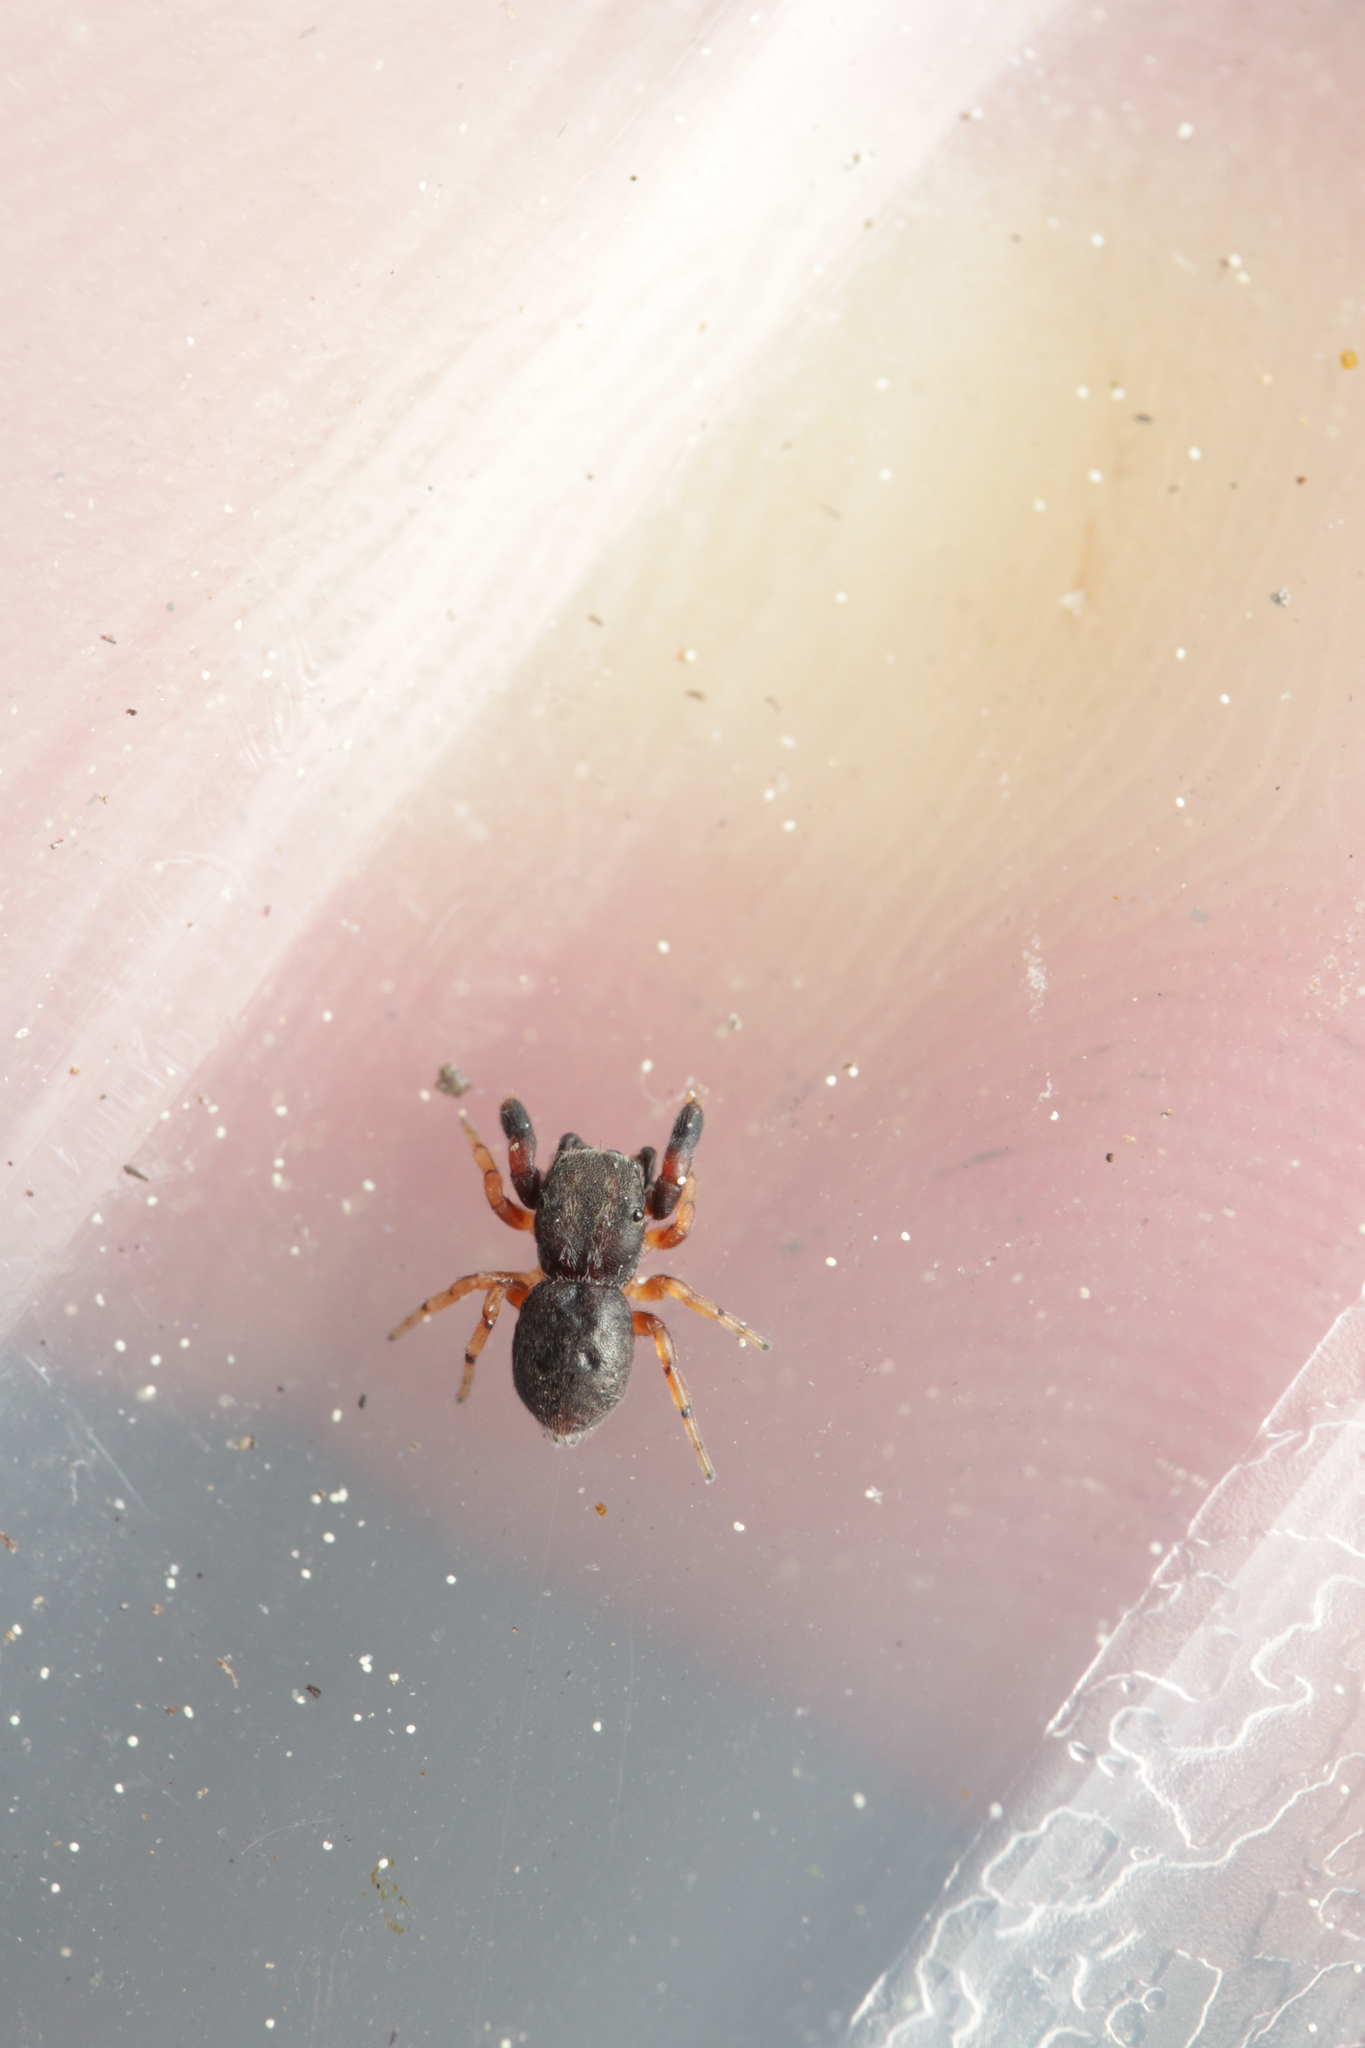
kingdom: Animalia
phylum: Arthropoda
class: Arachnida
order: Araneae
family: Salticidae
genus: Ballus
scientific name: Ballus chalybeius
